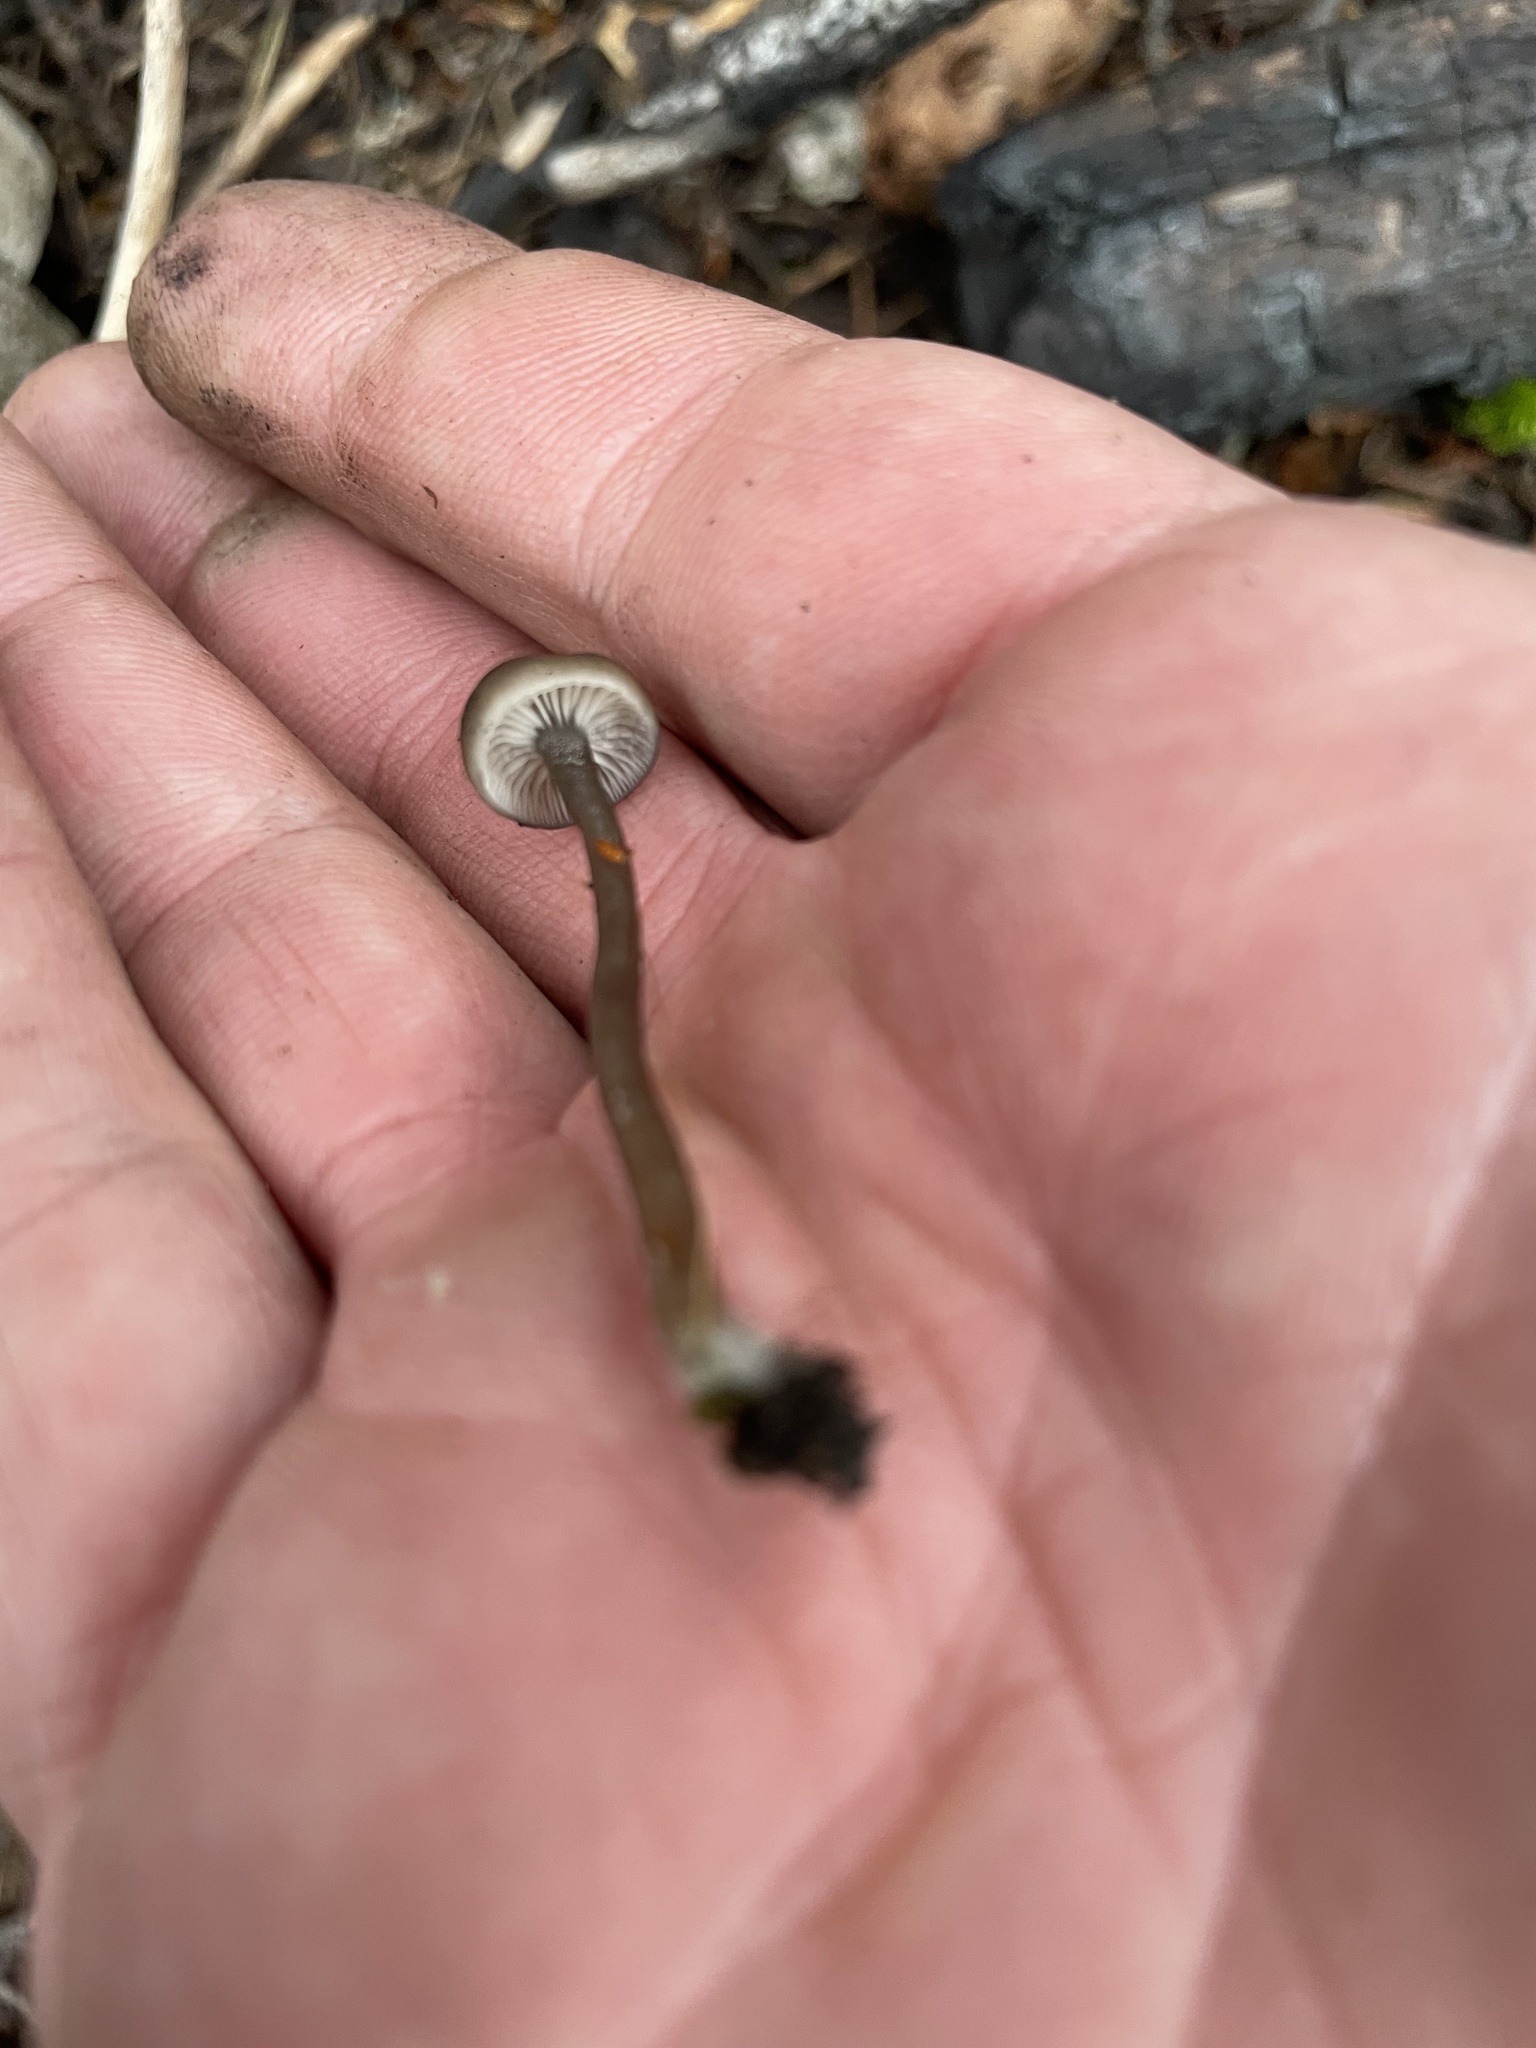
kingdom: Fungi
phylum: Basidiomycota
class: Agaricomycetes
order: Agaricales
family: Tricholomataceae
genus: Myxomphalia
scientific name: Myxomphalia maura
